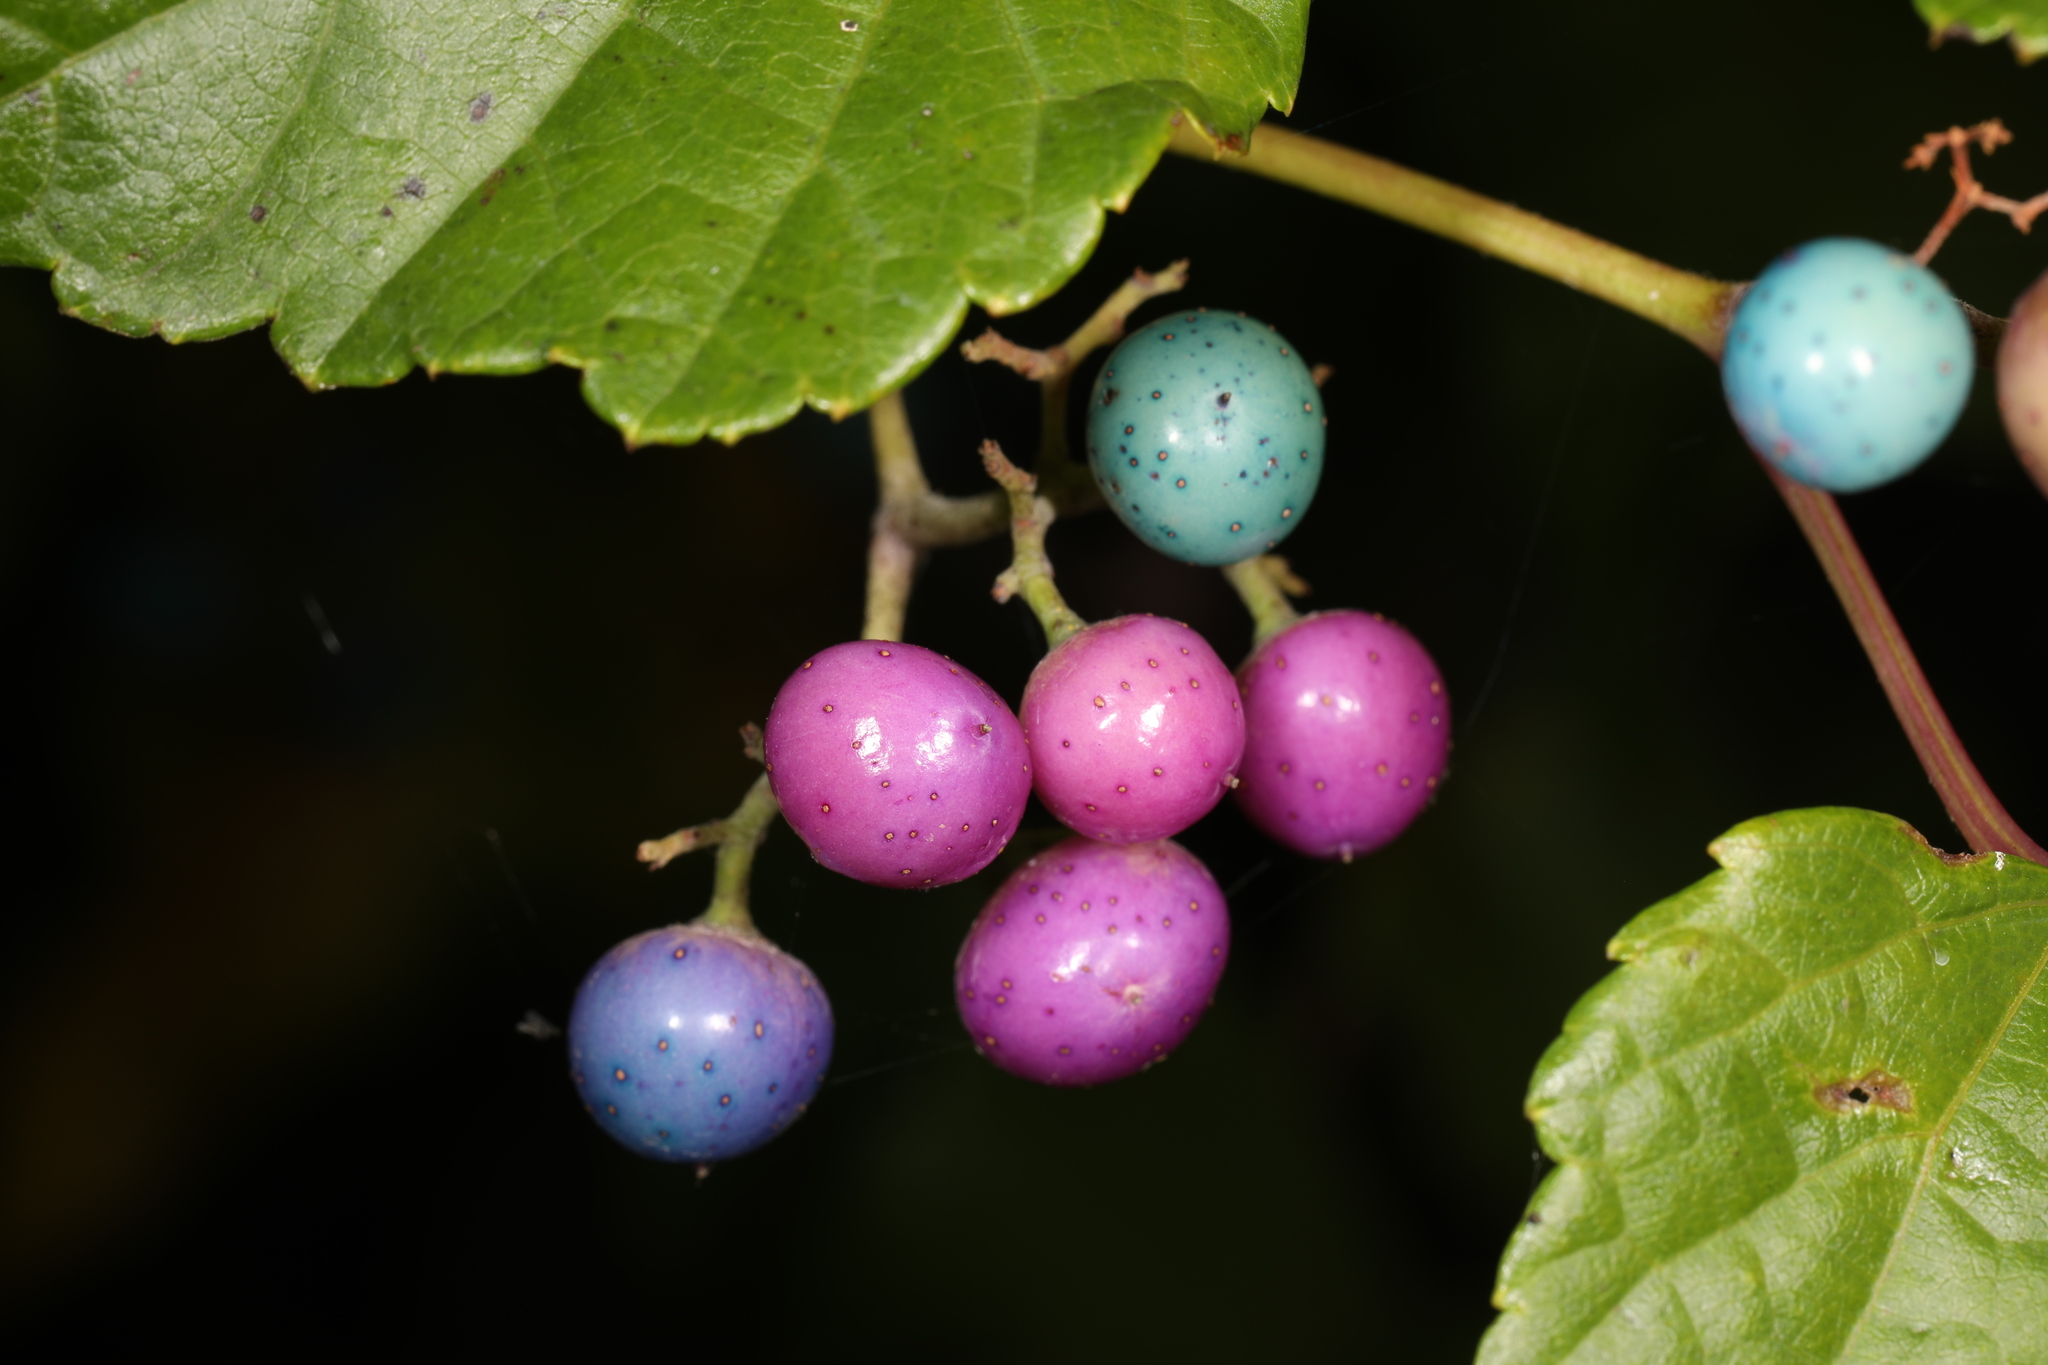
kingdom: Plantae
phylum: Tracheophyta
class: Magnoliopsida
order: Vitales
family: Vitaceae
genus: Ampelopsis
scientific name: Ampelopsis glandulosa
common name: Amur peppervine
